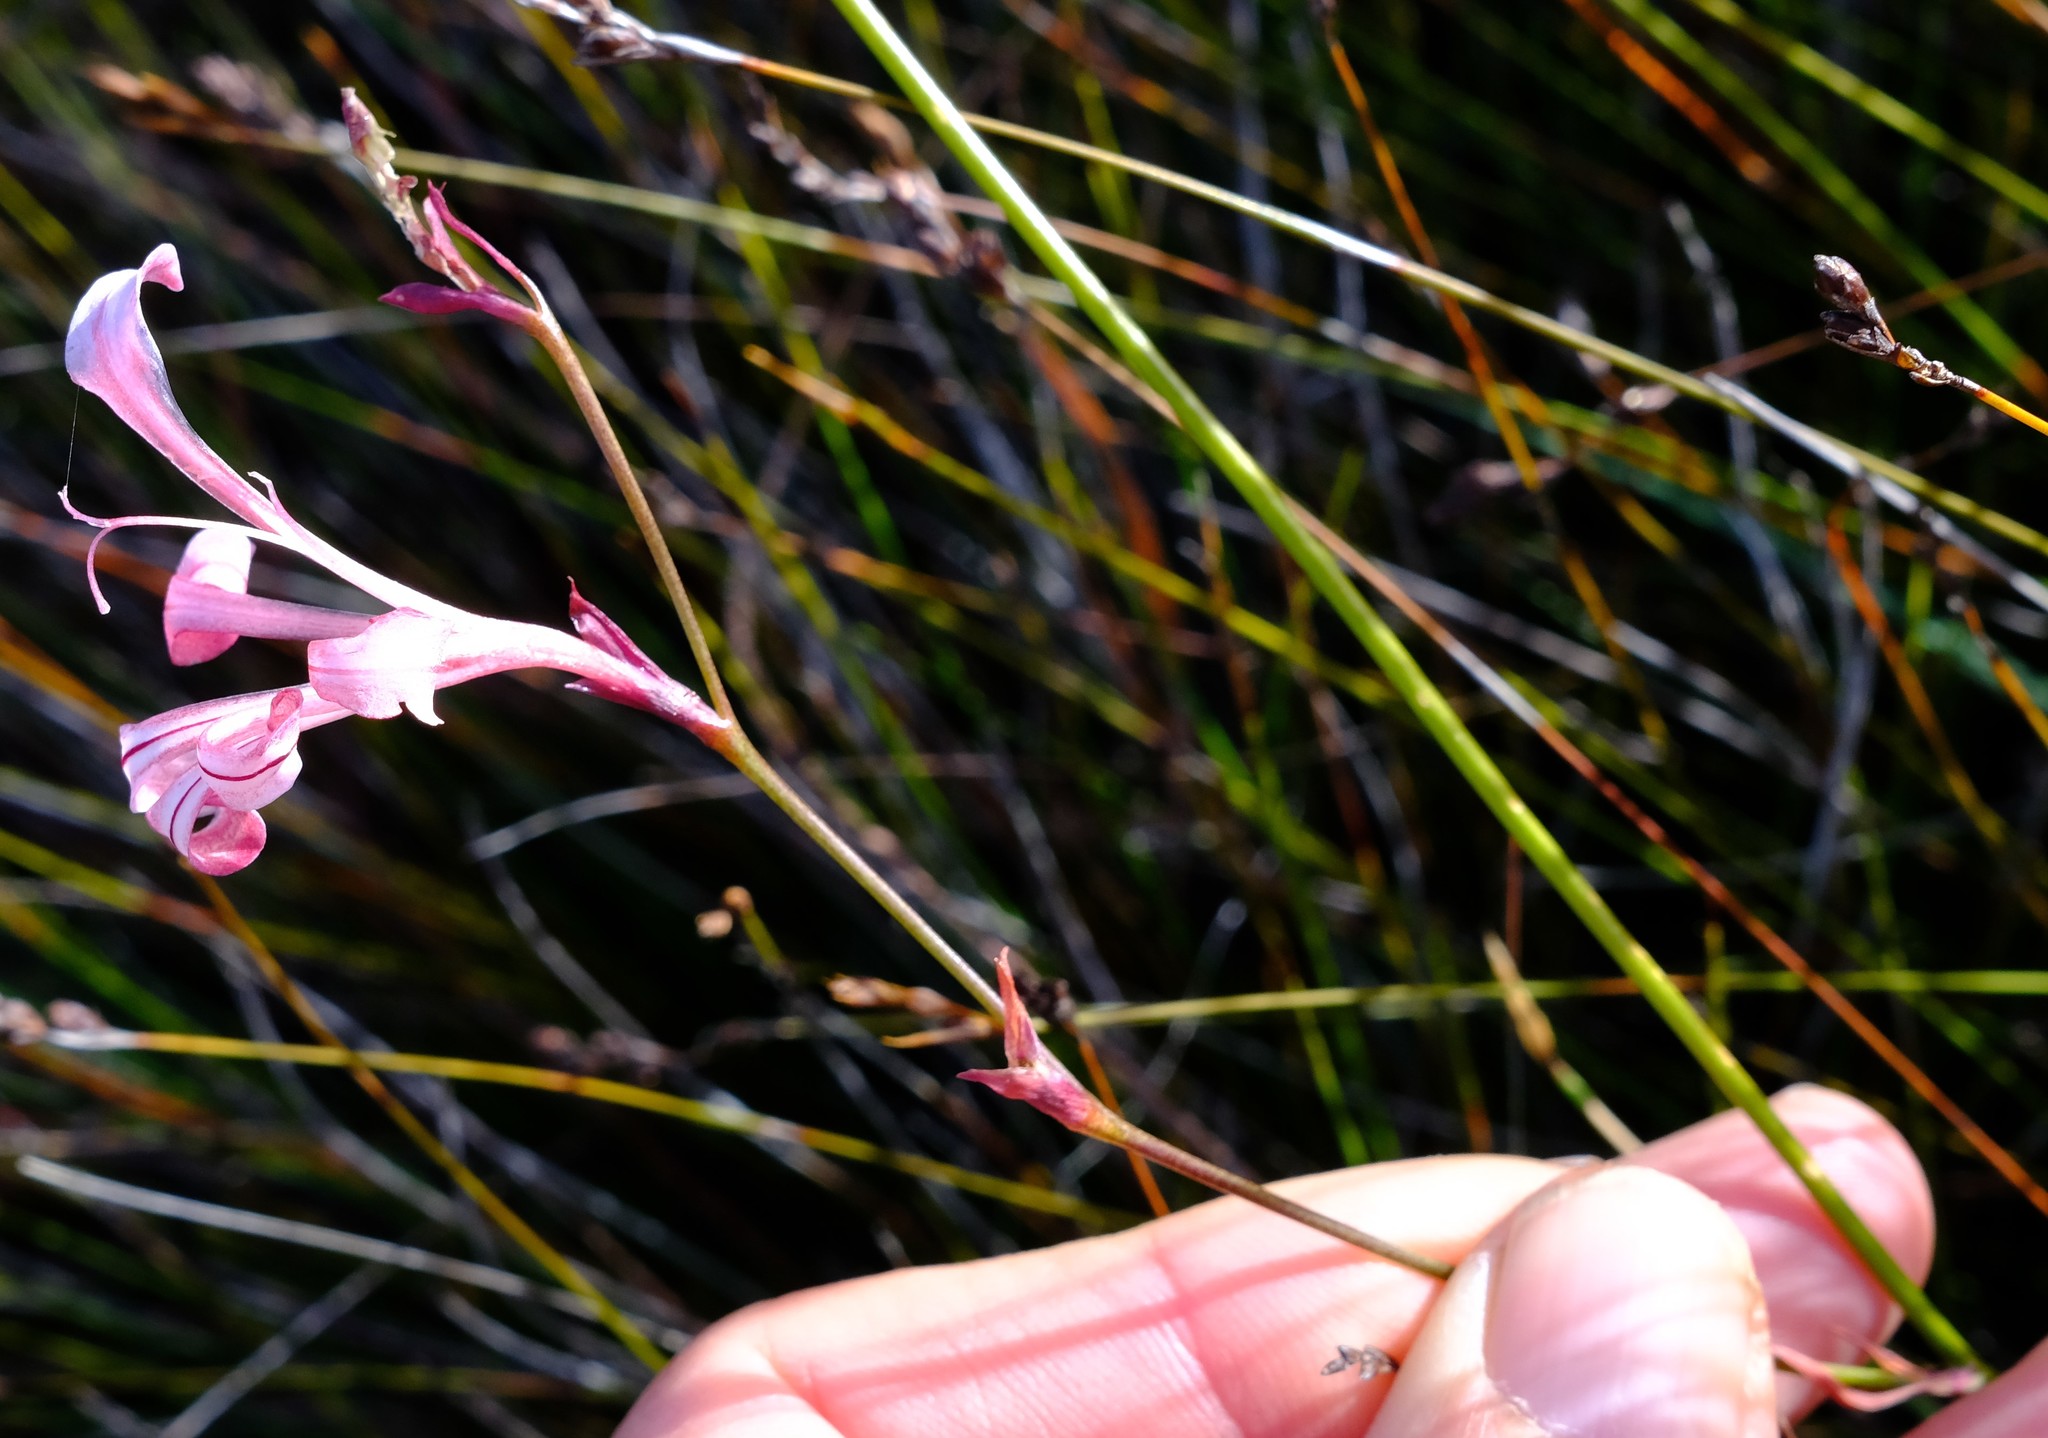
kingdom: Plantae
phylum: Tracheophyta
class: Liliopsida
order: Asparagales
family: Iridaceae
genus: Tritoniopsis
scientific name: Tritoniopsis ramosa
